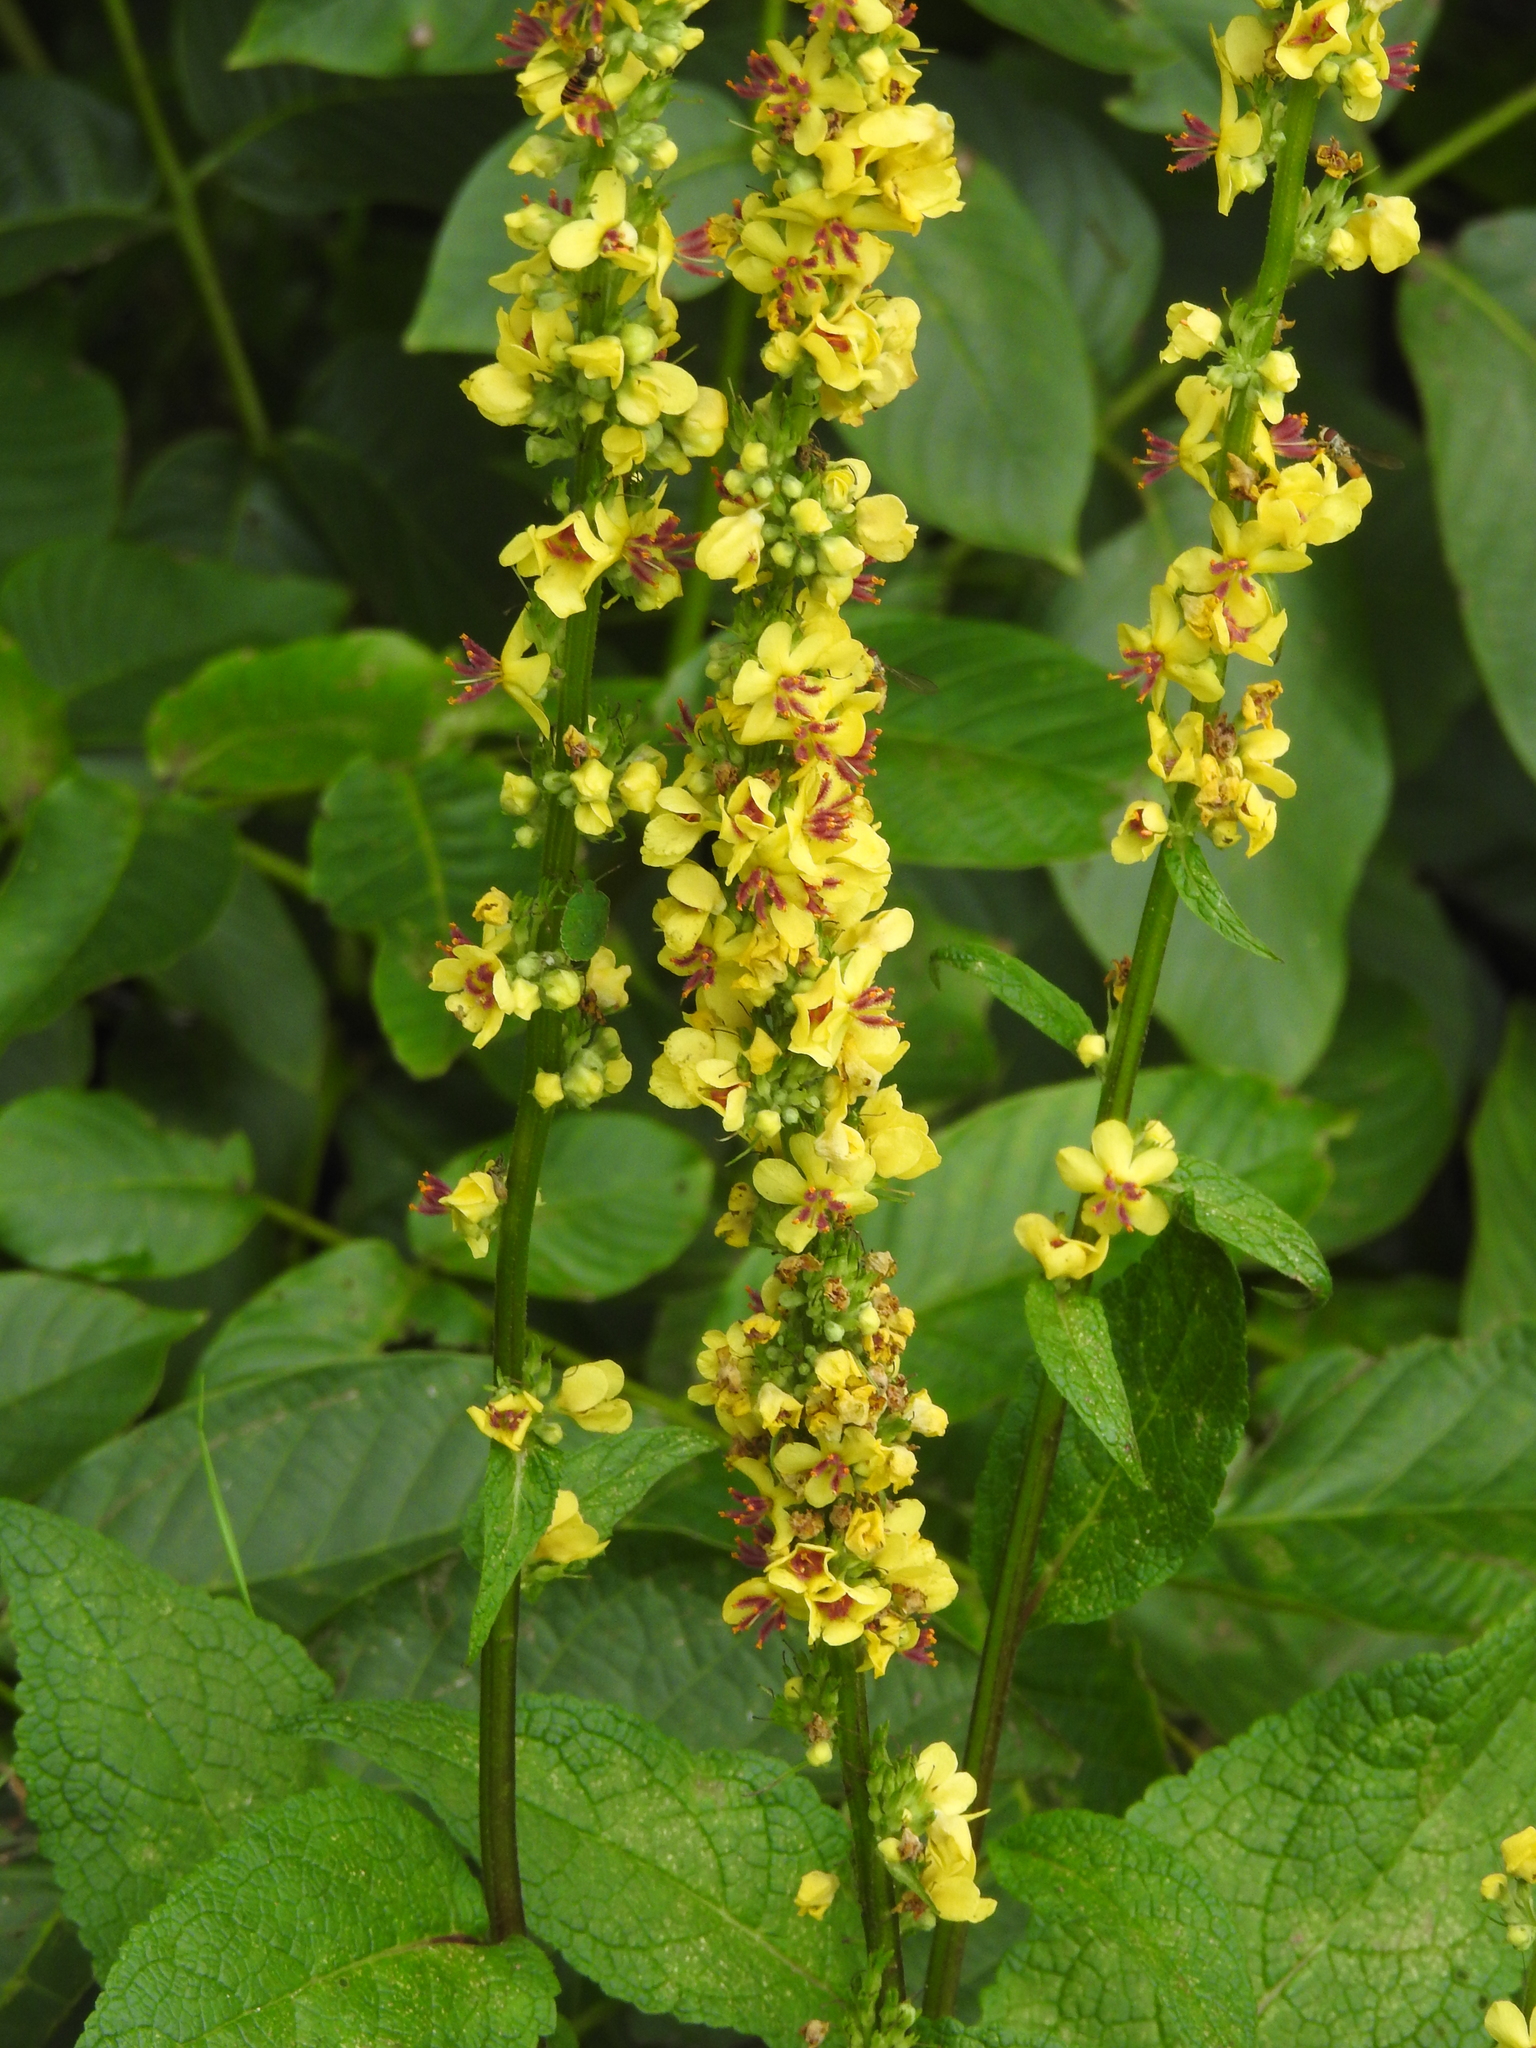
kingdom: Plantae
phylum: Tracheophyta
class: Magnoliopsida
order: Lamiales
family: Scrophulariaceae
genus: Verbascum
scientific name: Verbascum nigrum
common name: Dark mullein
